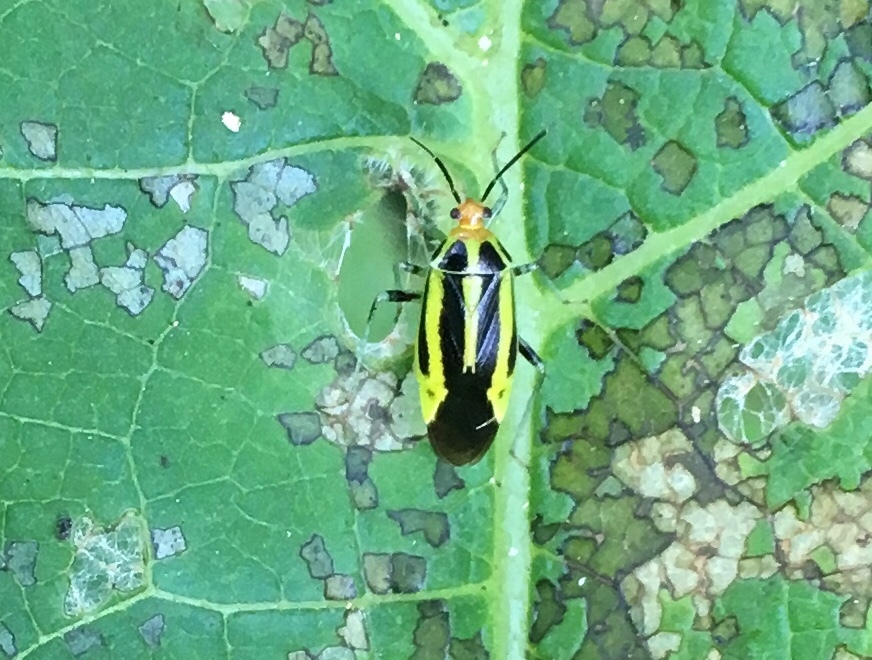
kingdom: Animalia
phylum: Arthropoda
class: Insecta
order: Hemiptera
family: Miridae
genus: Poecilocapsus
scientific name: Poecilocapsus lineatus
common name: Four-lined plant bug
